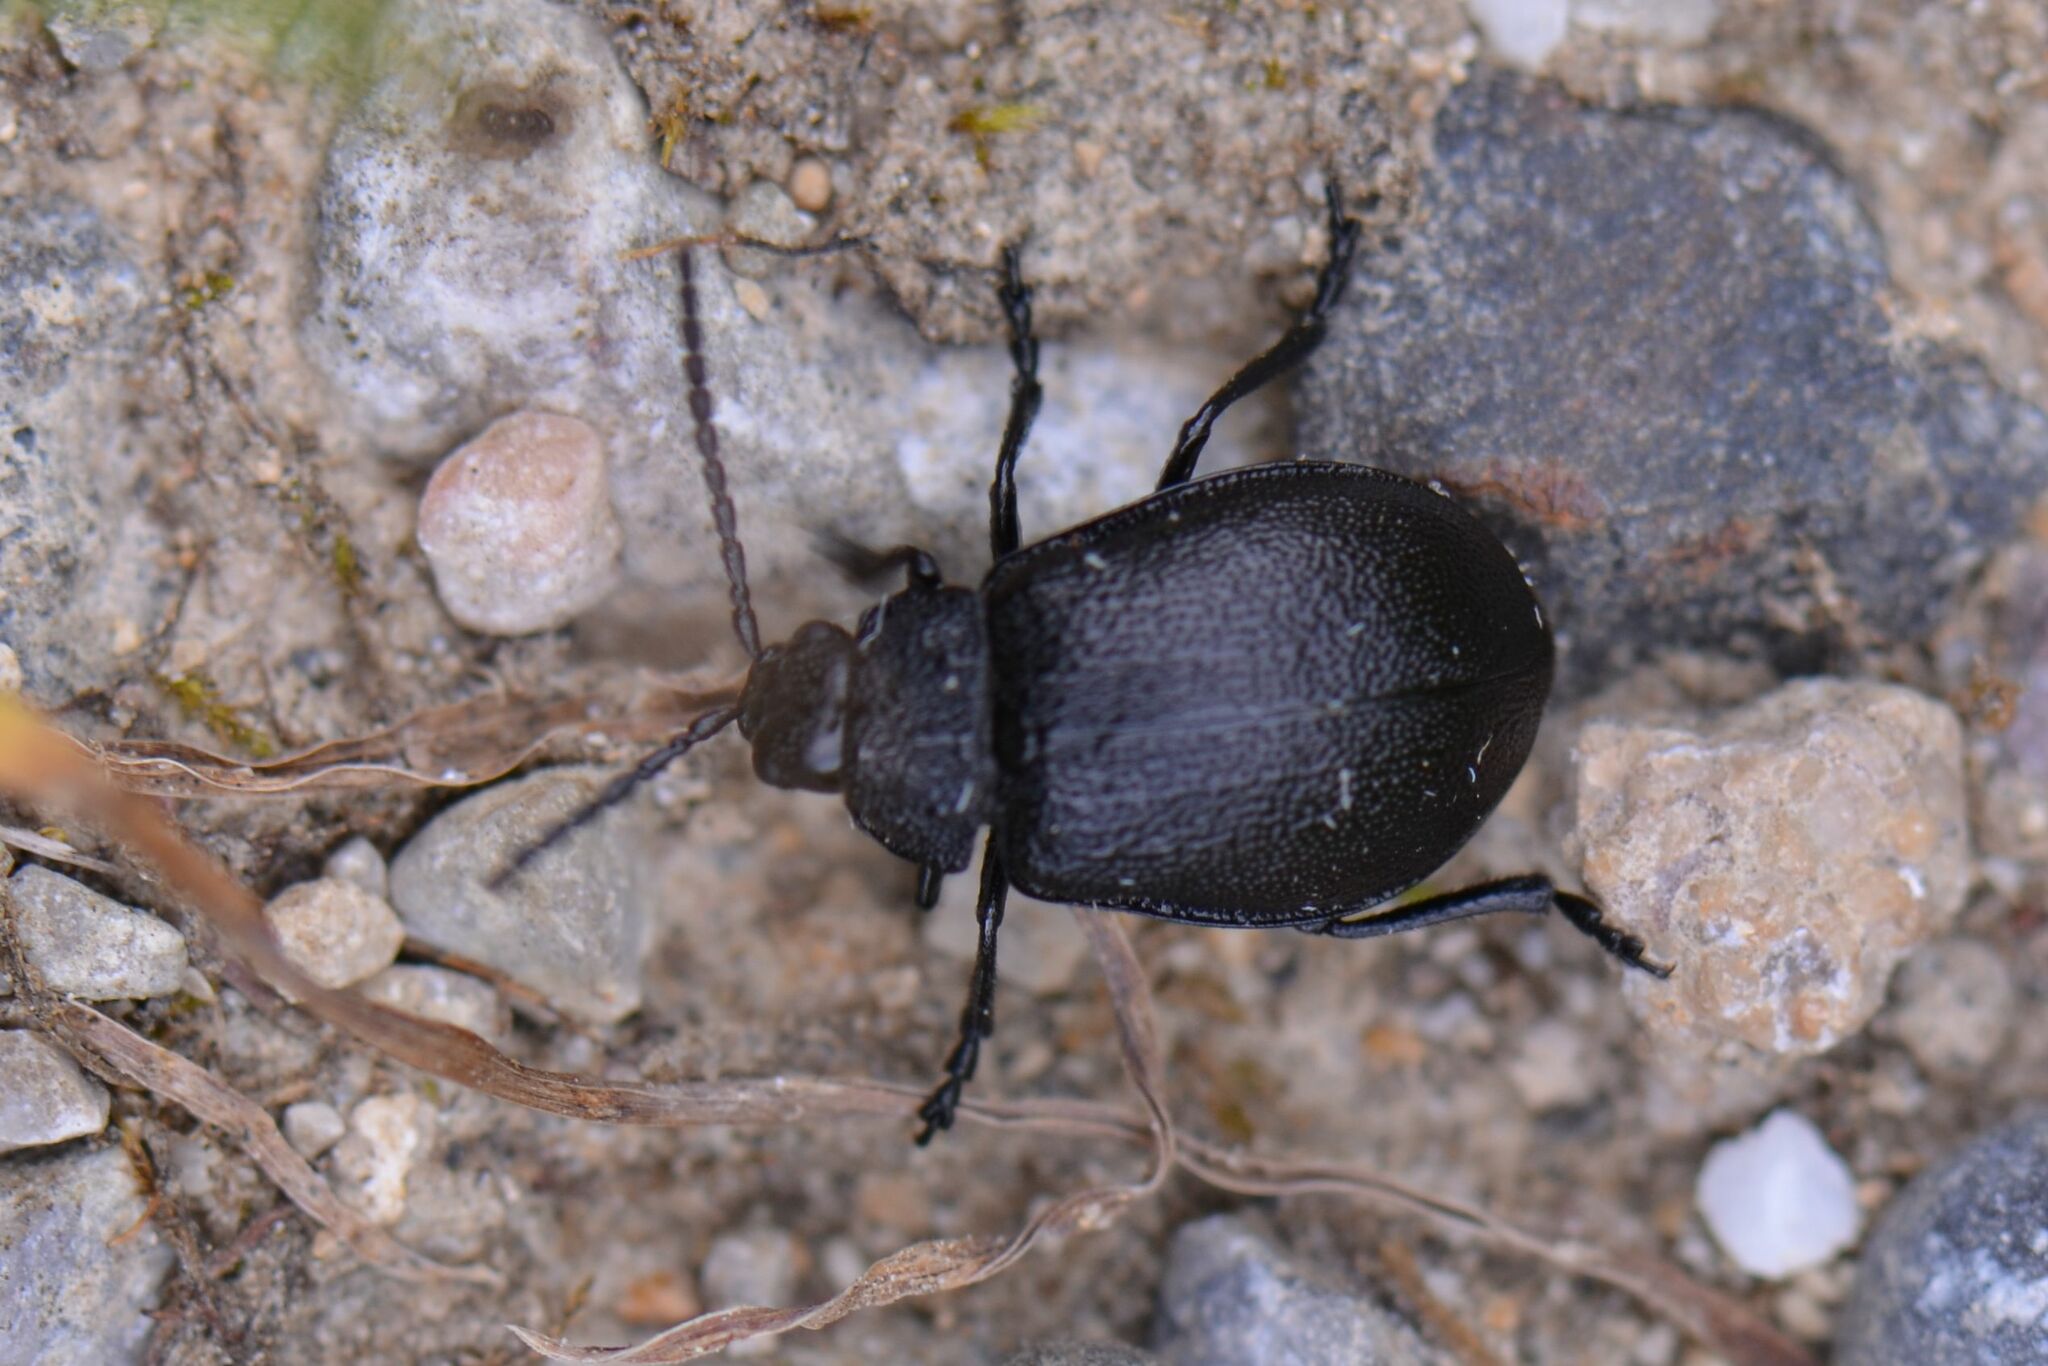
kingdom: Animalia
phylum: Arthropoda
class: Insecta
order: Coleoptera
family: Chrysomelidae
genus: Galeruca
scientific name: Galeruca tanaceti
